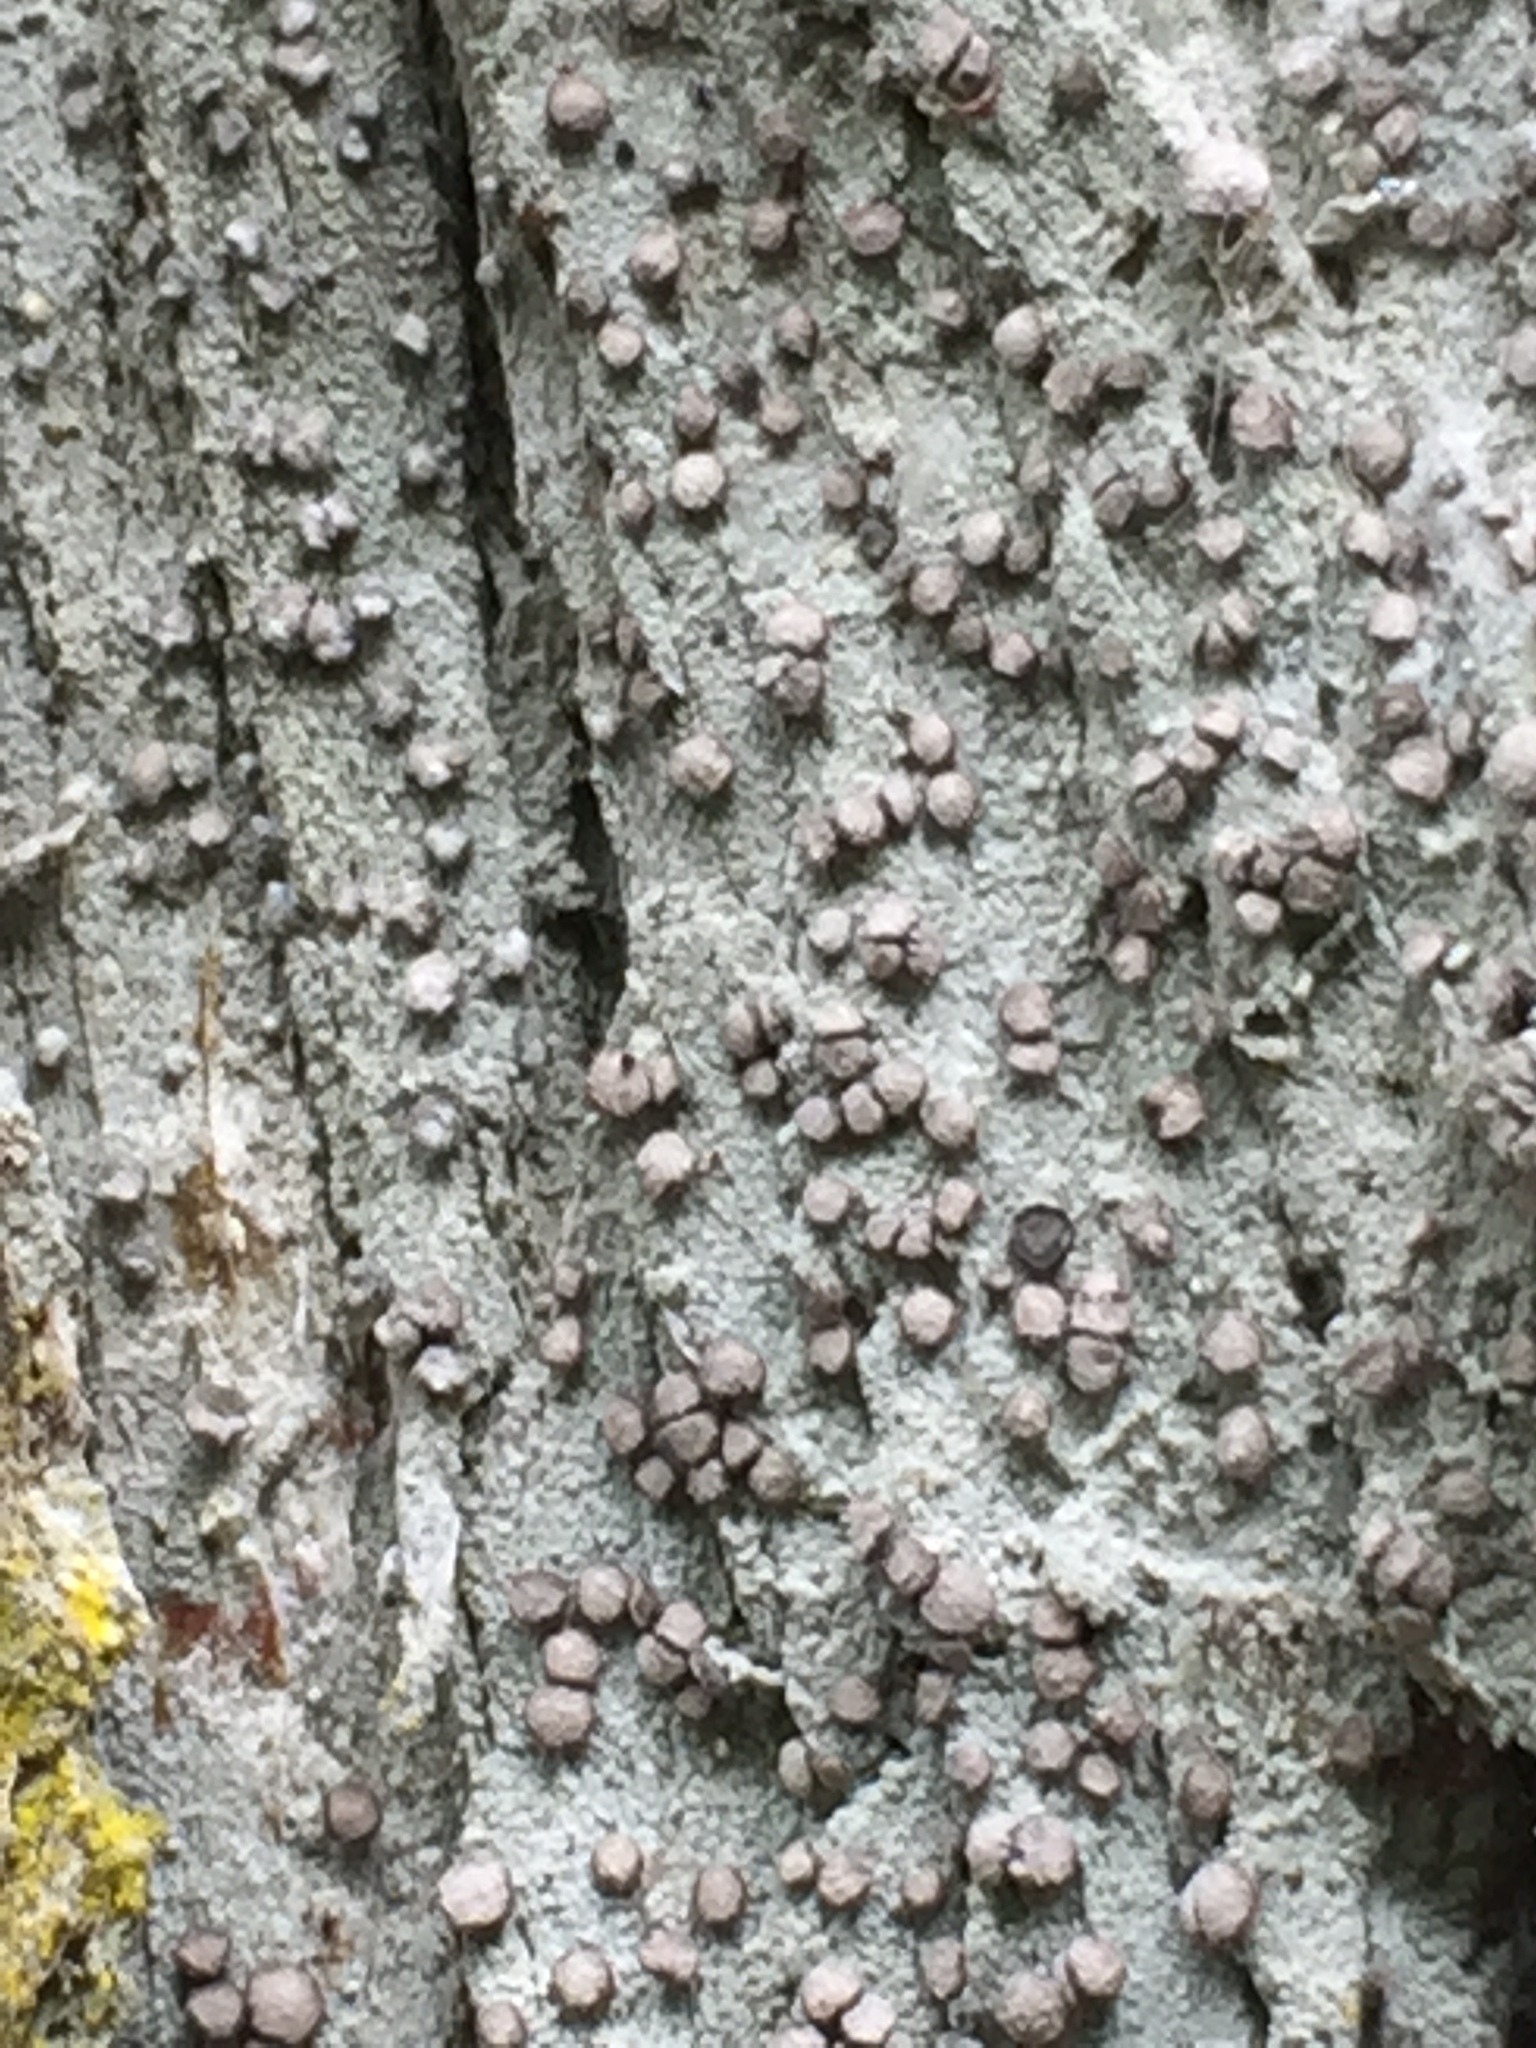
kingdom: Fungi
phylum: Ascomycota
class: Arthoniomycetes
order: Arthoniales
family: Roccellaceae
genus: Lecanactis
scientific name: Lecanactis subfarinosa
